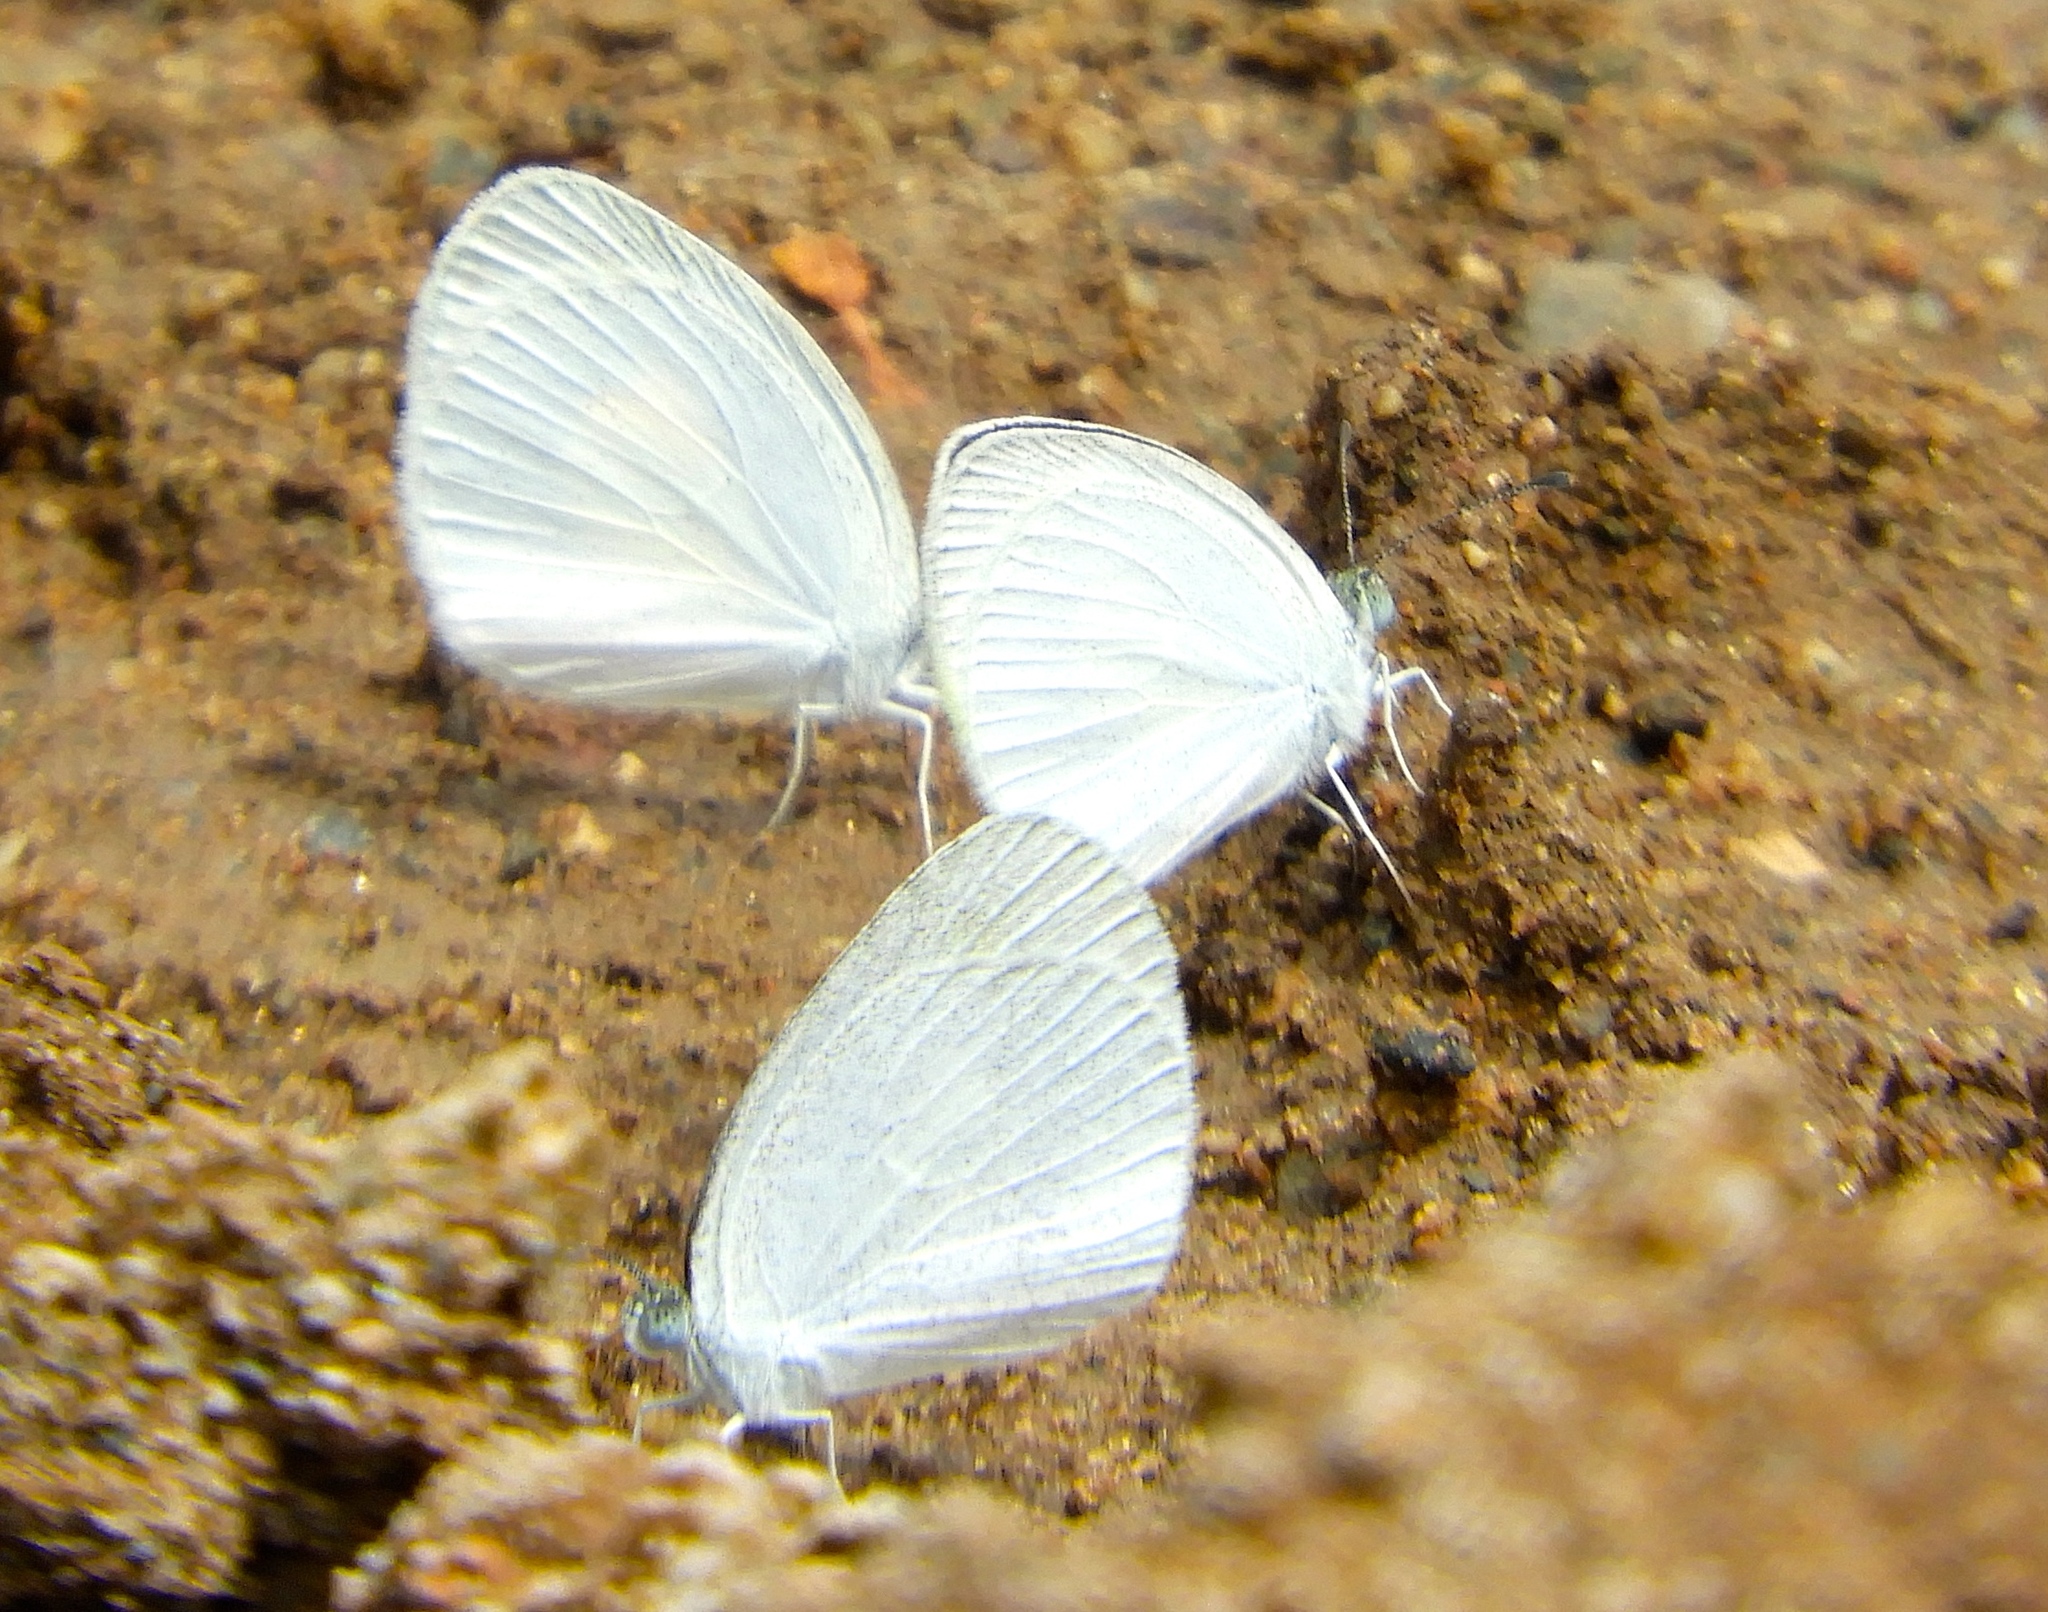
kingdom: Animalia
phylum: Arthropoda
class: Insecta
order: Lepidoptera
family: Pieridae
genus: Eurema
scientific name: Eurema daira
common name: Barred sulphur
